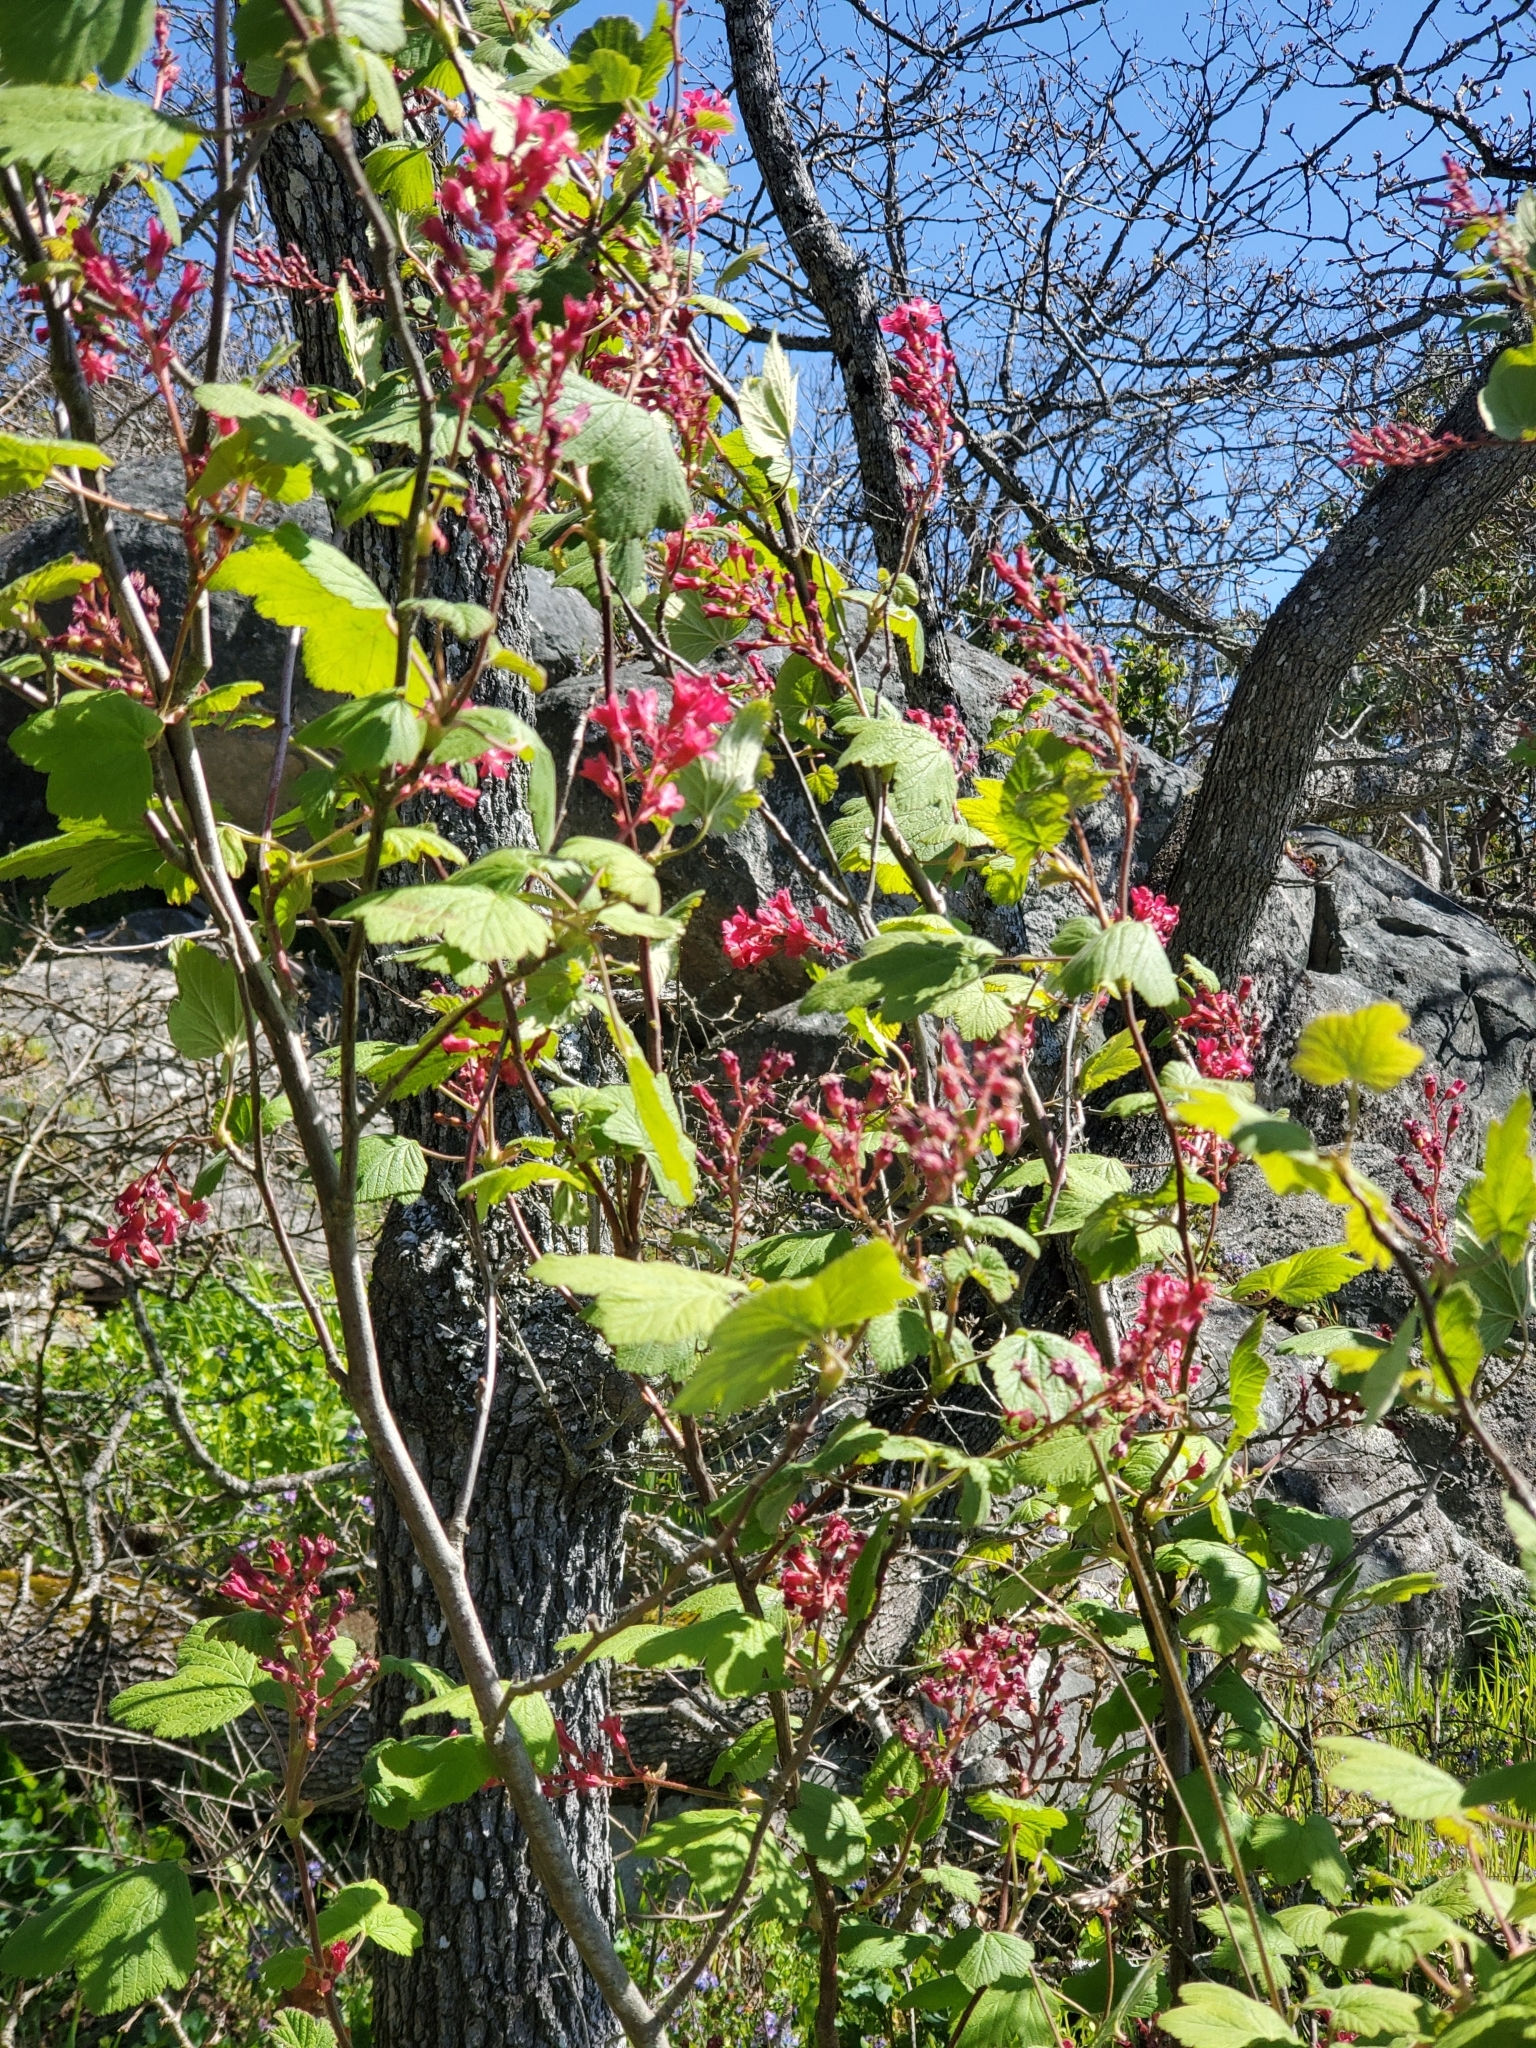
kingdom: Plantae
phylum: Tracheophyta
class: Magnoliopsida
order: Saxifragales
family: Grossulariaceae
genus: Ribes
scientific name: Ribes sanguineum
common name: Flowering currant
